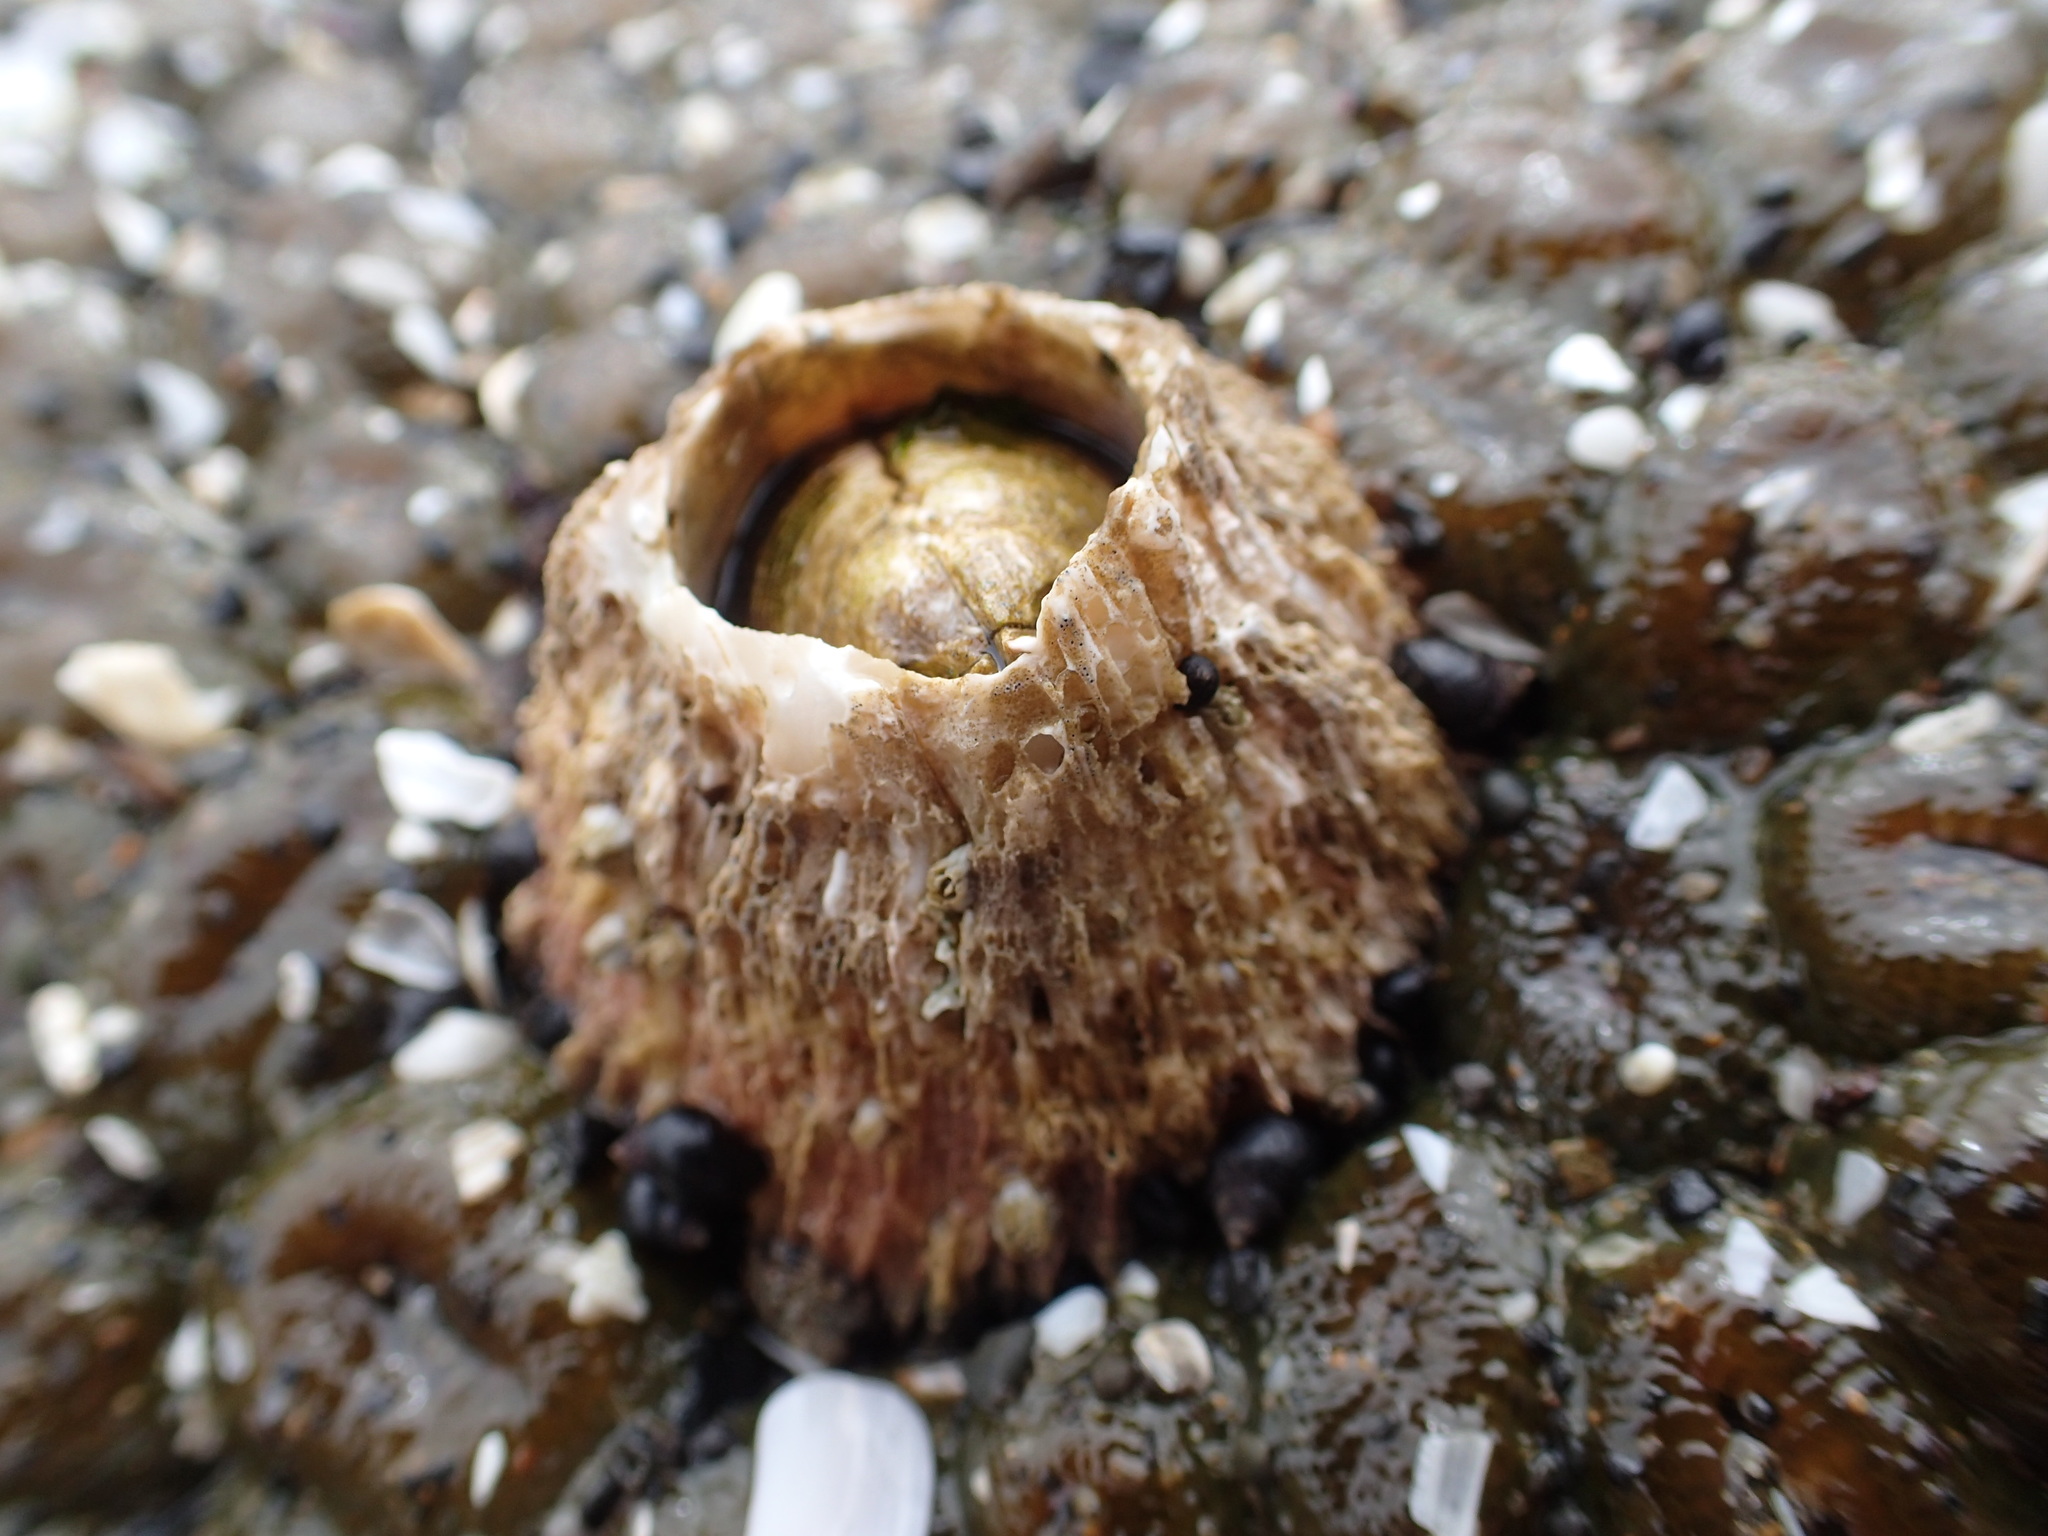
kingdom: Animalia
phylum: Arthropoda
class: Maxillopoda
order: Sessilia
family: Archaeobalanidae
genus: Semibalanus
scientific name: Semibalanus cariosus
